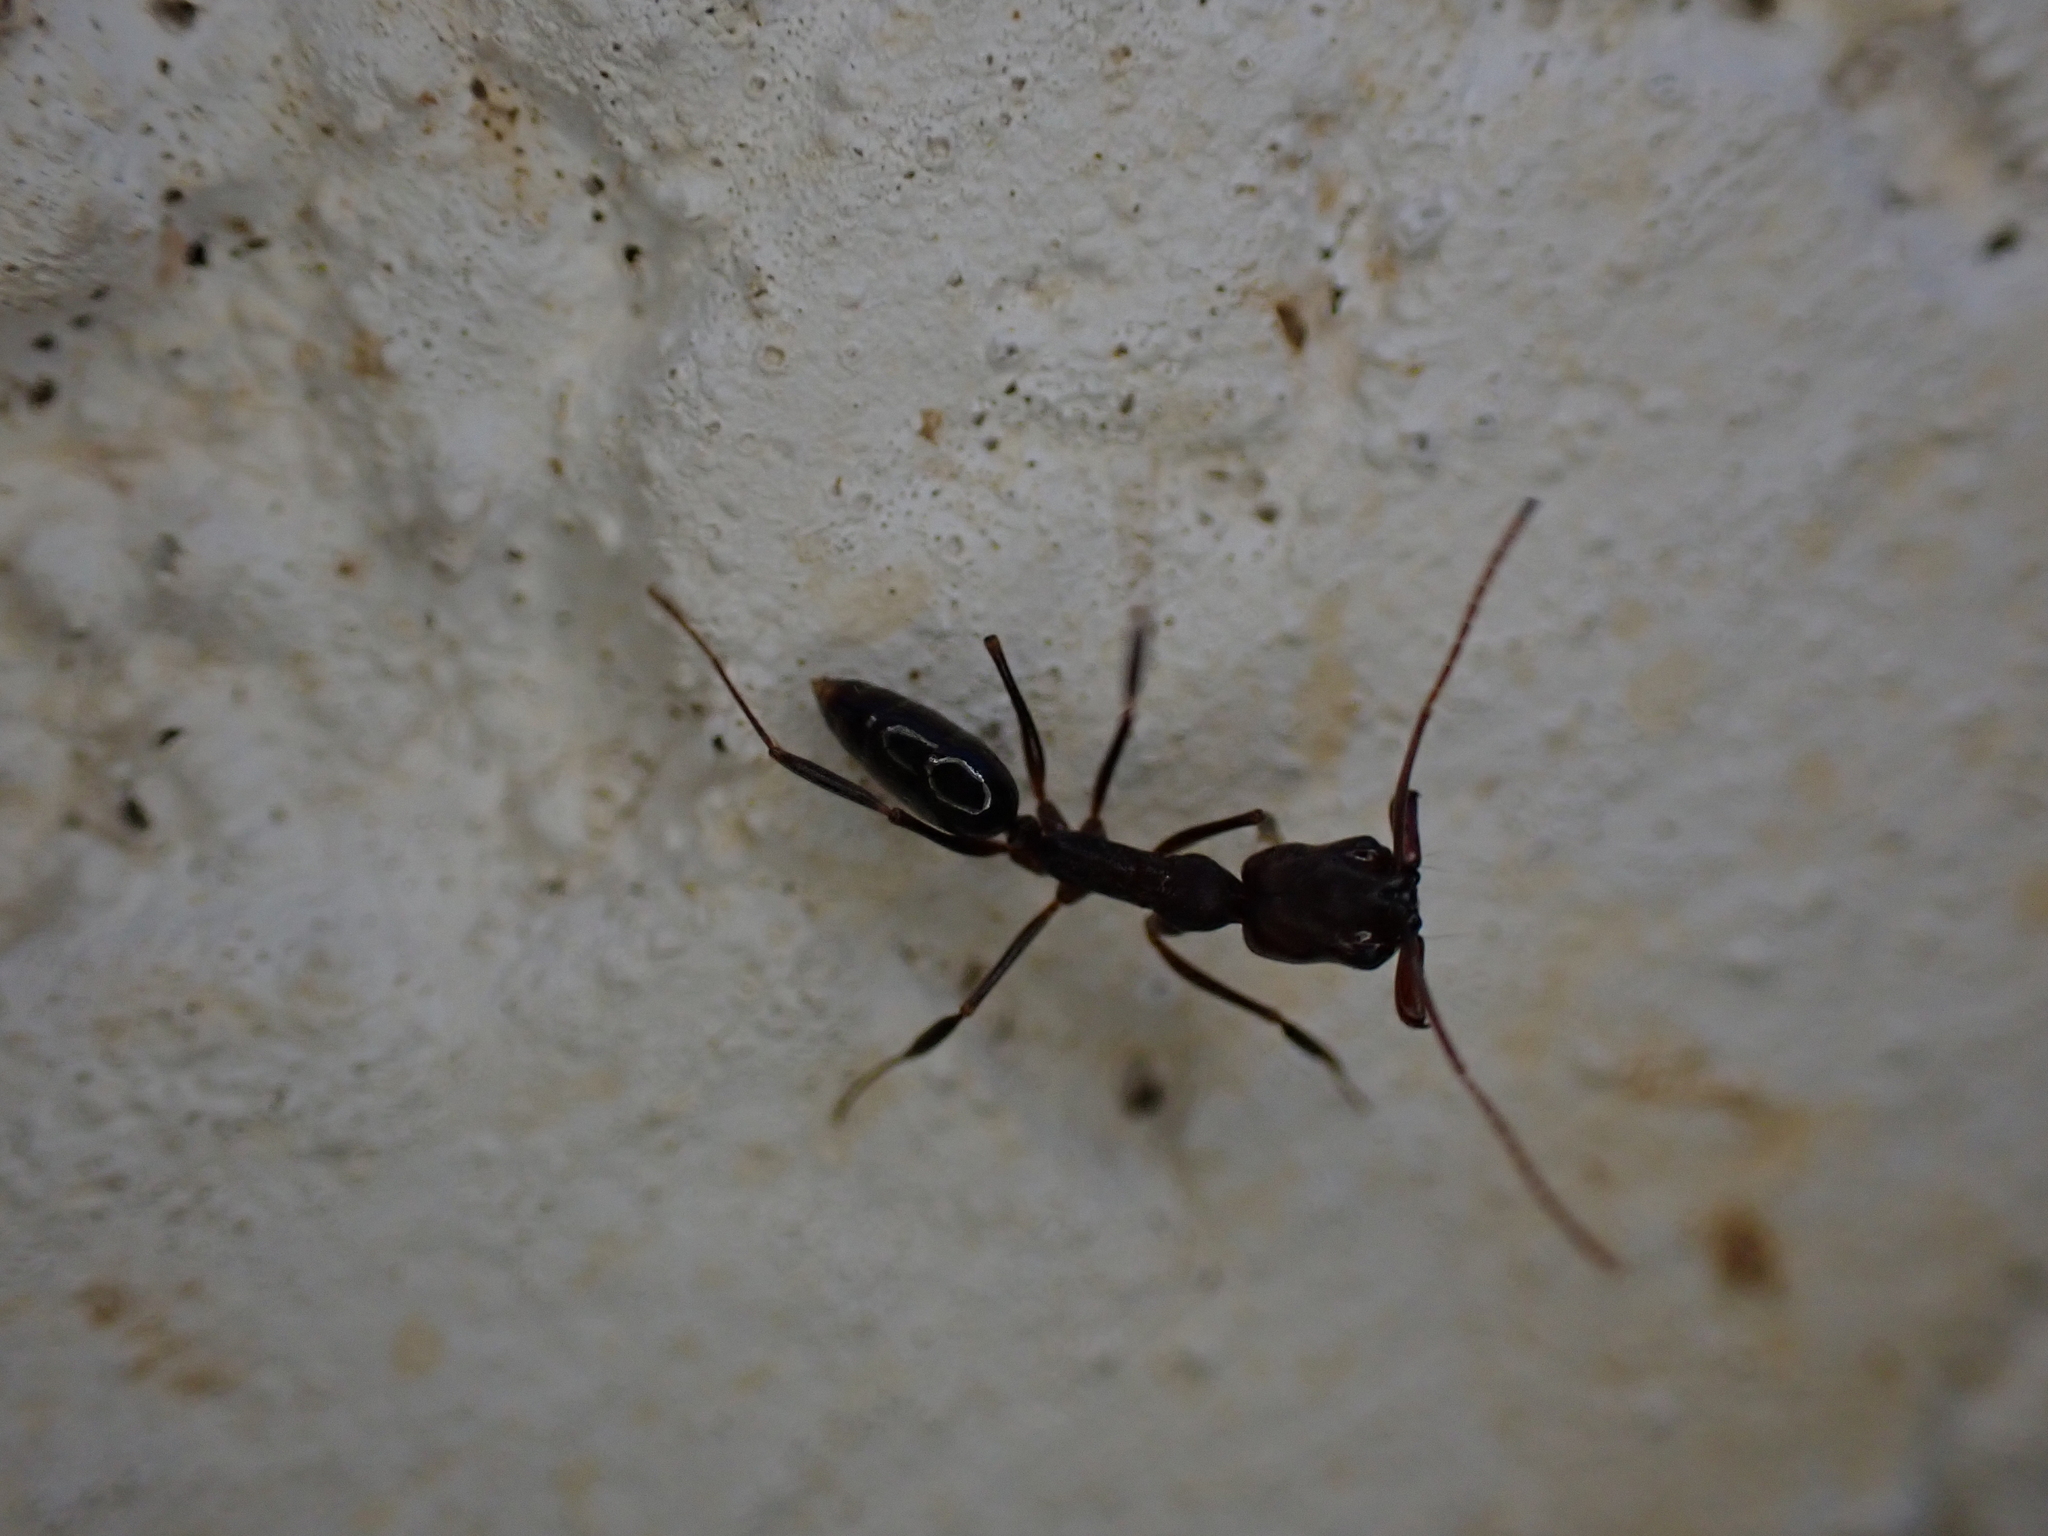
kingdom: Animalia
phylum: Arthropoda
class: Insecta
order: Hymenoptera
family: Formicidae
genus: Odontomachus
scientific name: Odontomachus brunneus
